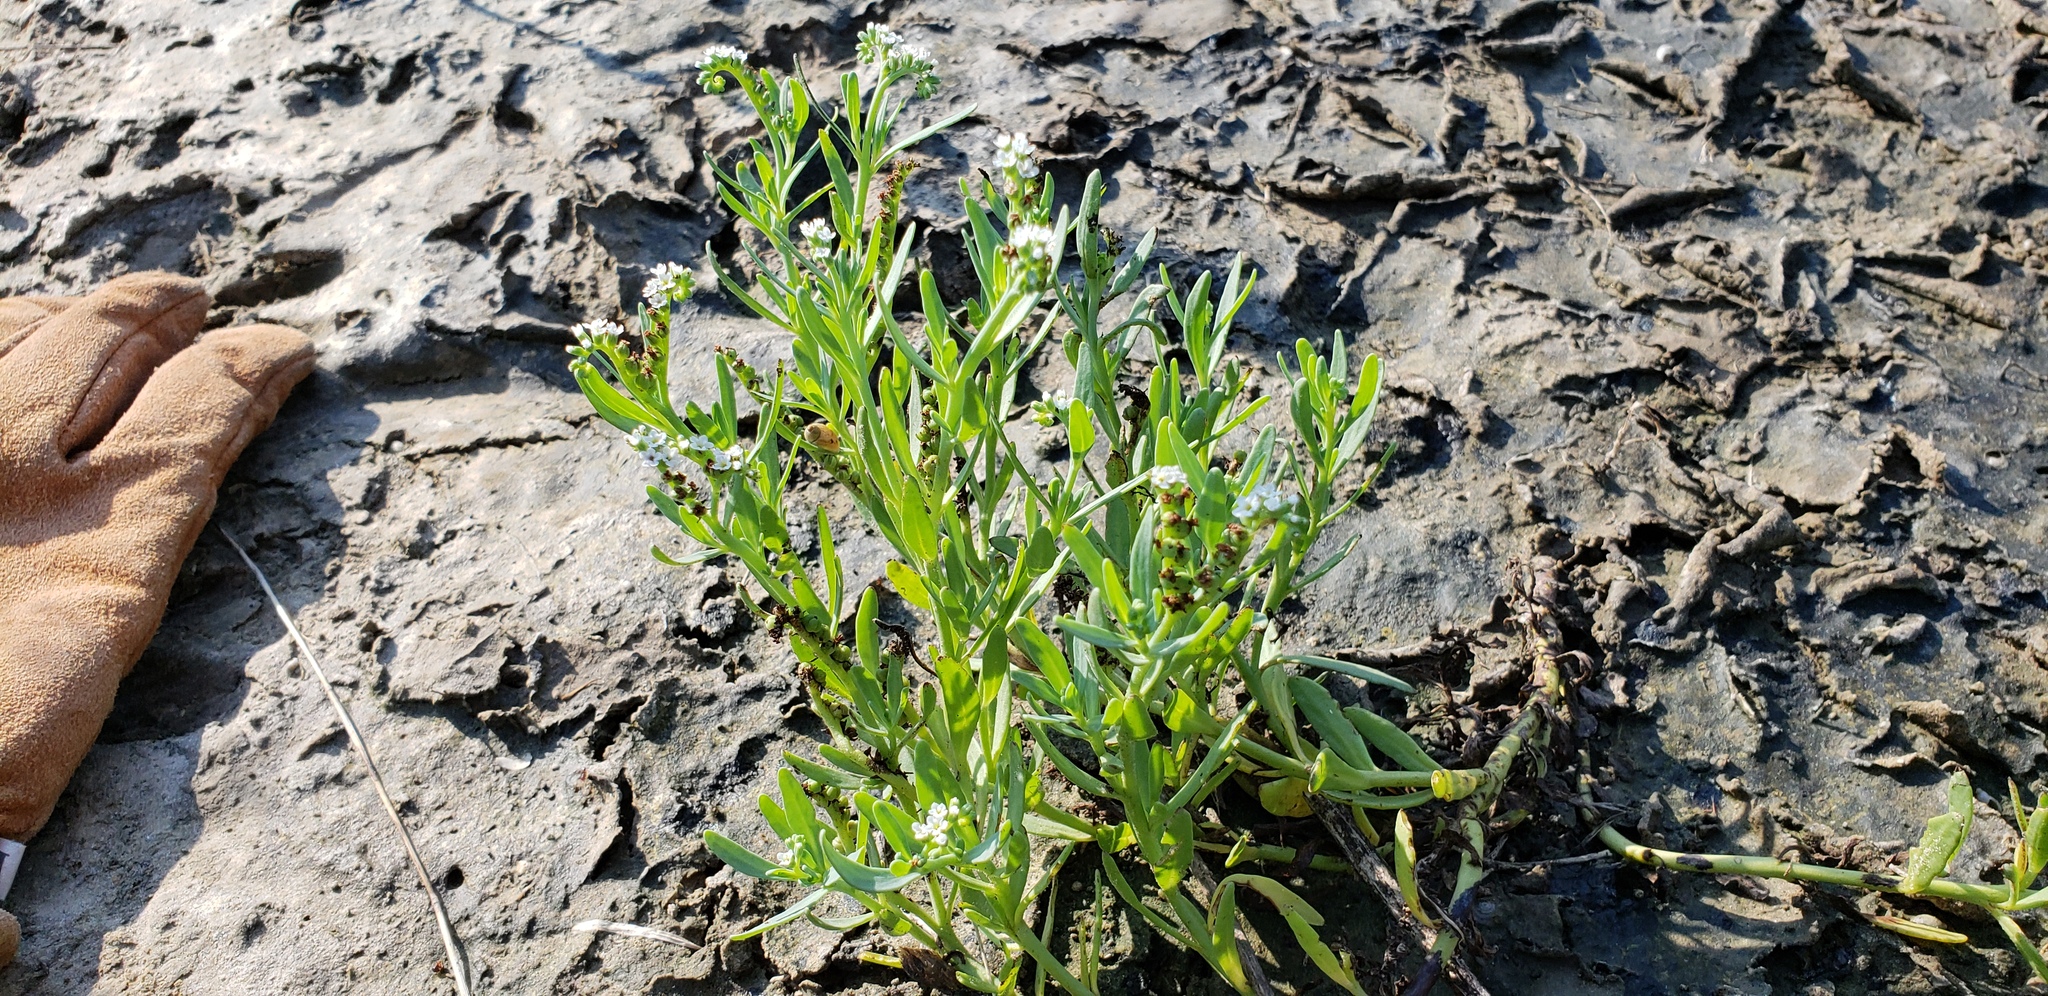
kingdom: Plantae
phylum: Tracheophyta
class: Magnoliopsida
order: Boraginales
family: Heliotropiaceae
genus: Heliotropium
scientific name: Heliotropium curassavicum
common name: Seaside heliotrope
